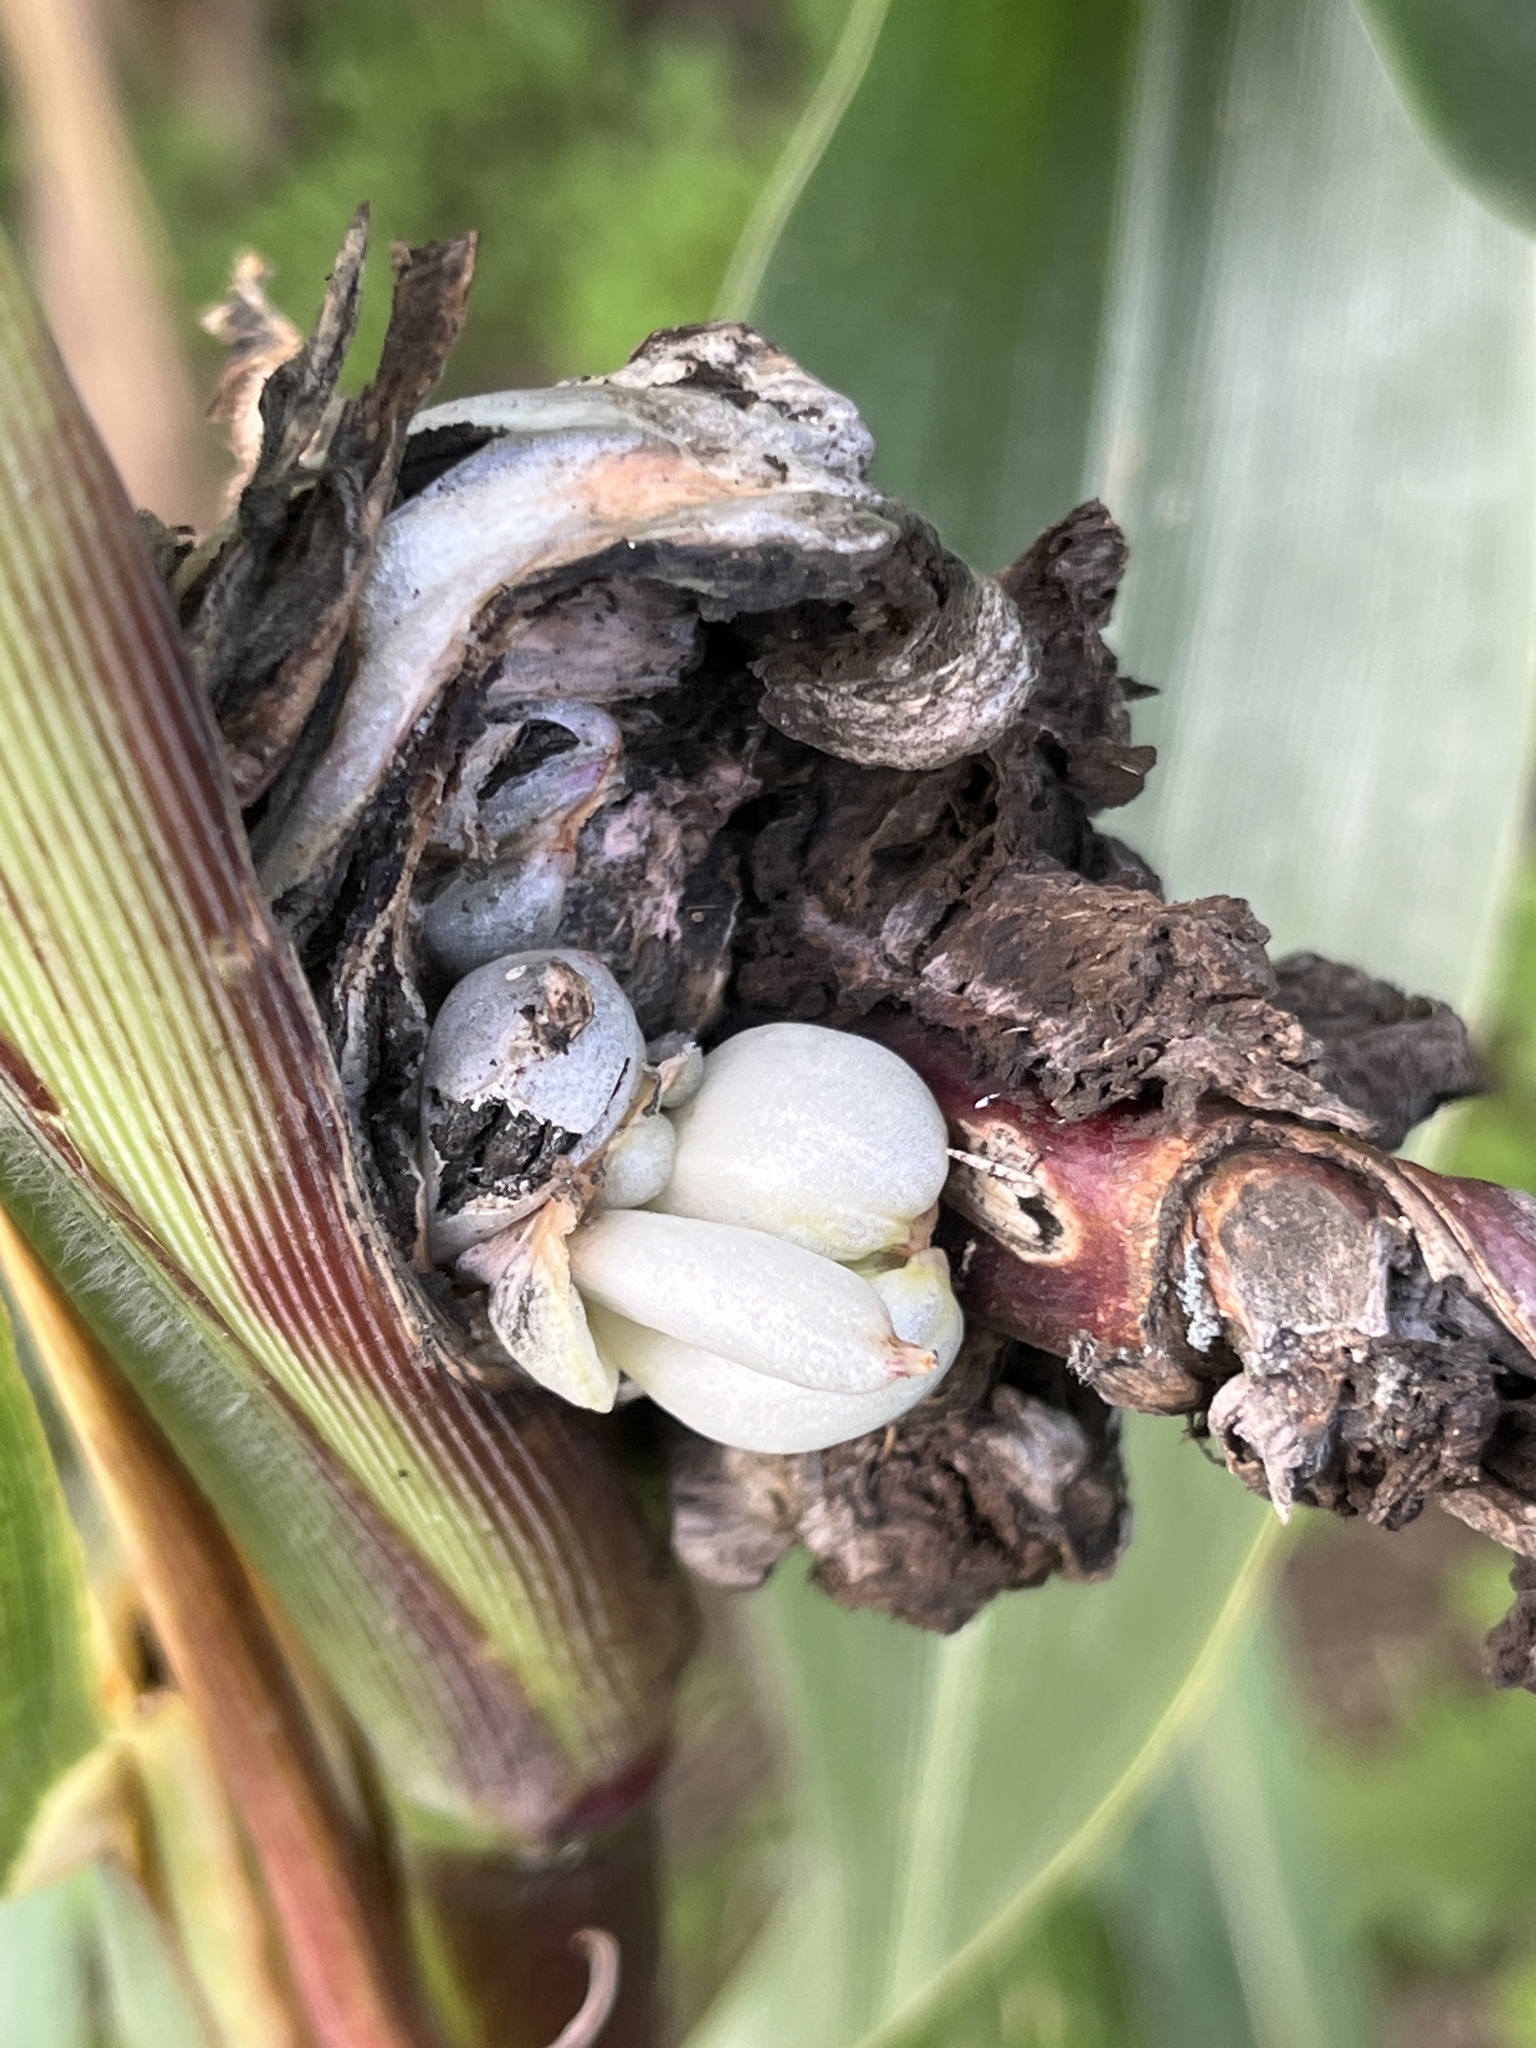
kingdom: Fungi
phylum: Basidiomycota
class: Ustilaginomycetes
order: Ustilaginales
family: Ustilaginaceae
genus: Mycosarcoma
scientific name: Mycosarcoma maydis
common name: Corn smut
